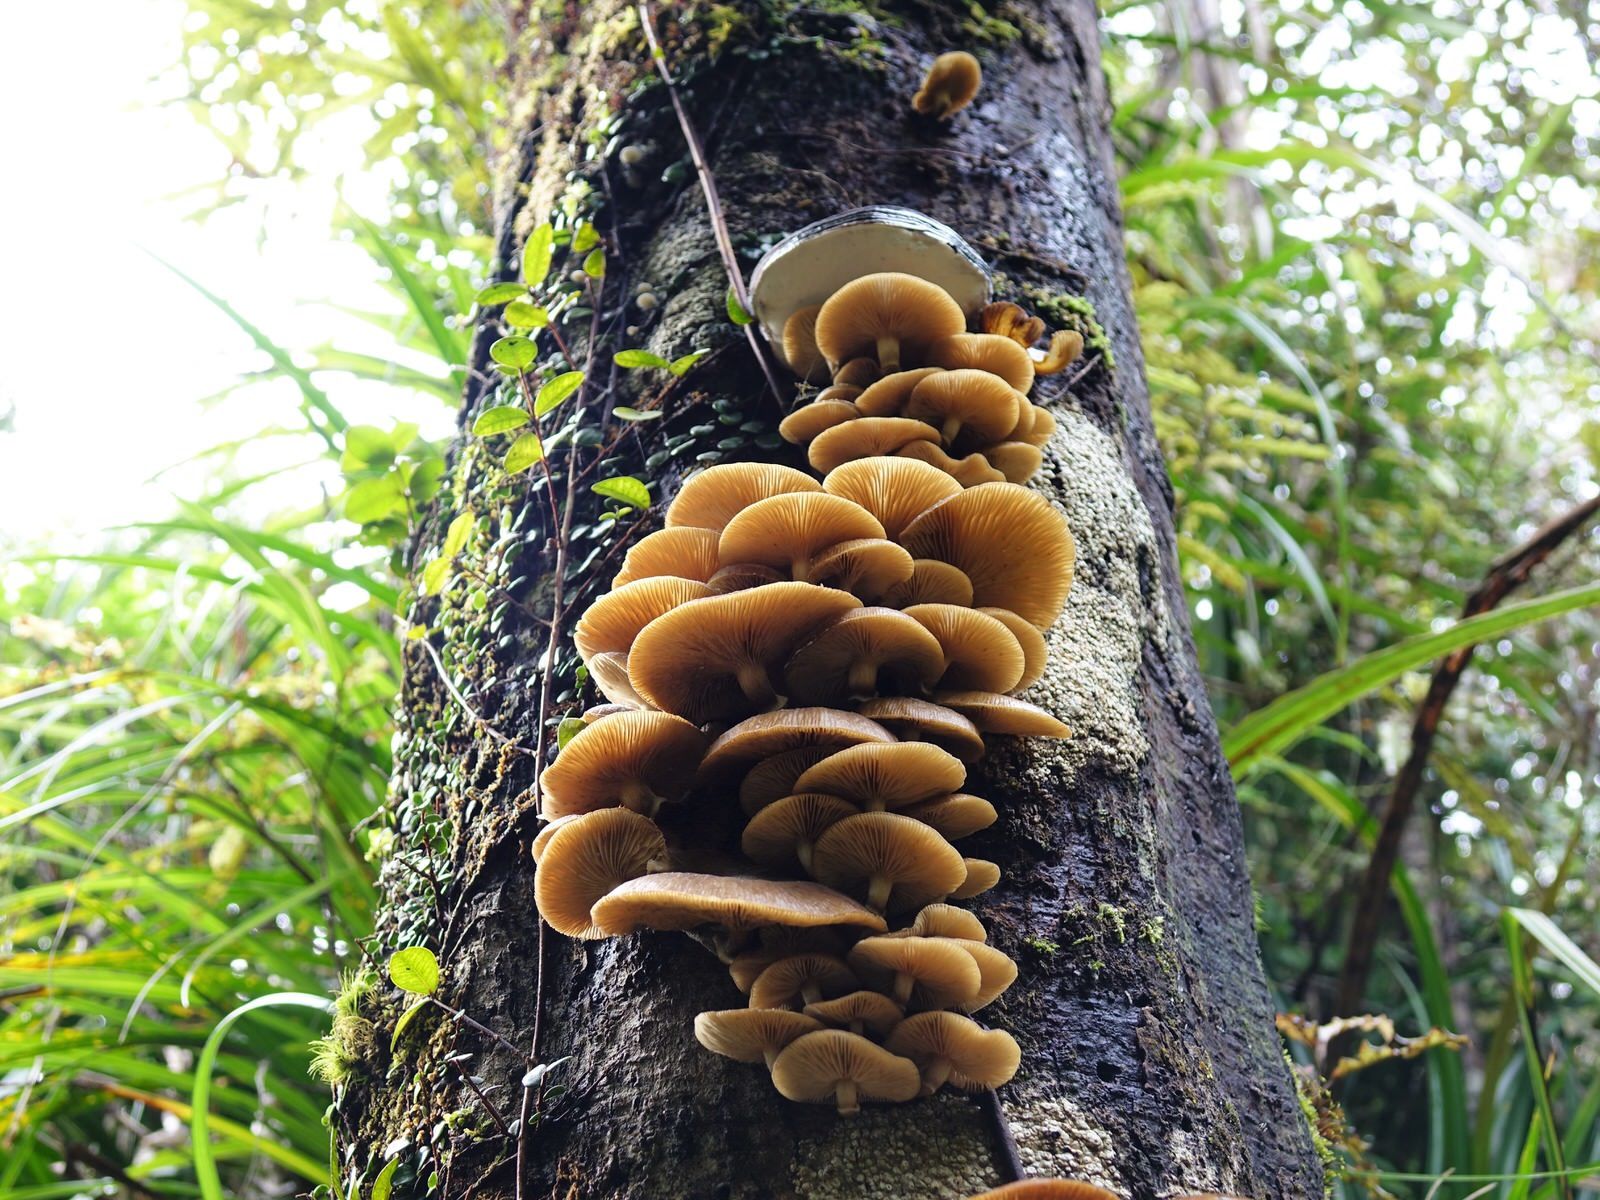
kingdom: Fungi
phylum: Basidiomycota
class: Agaricomycetes
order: Agaricales
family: Physalacriaceae
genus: Armillaria
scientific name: Armillaria novae-zelandiae
